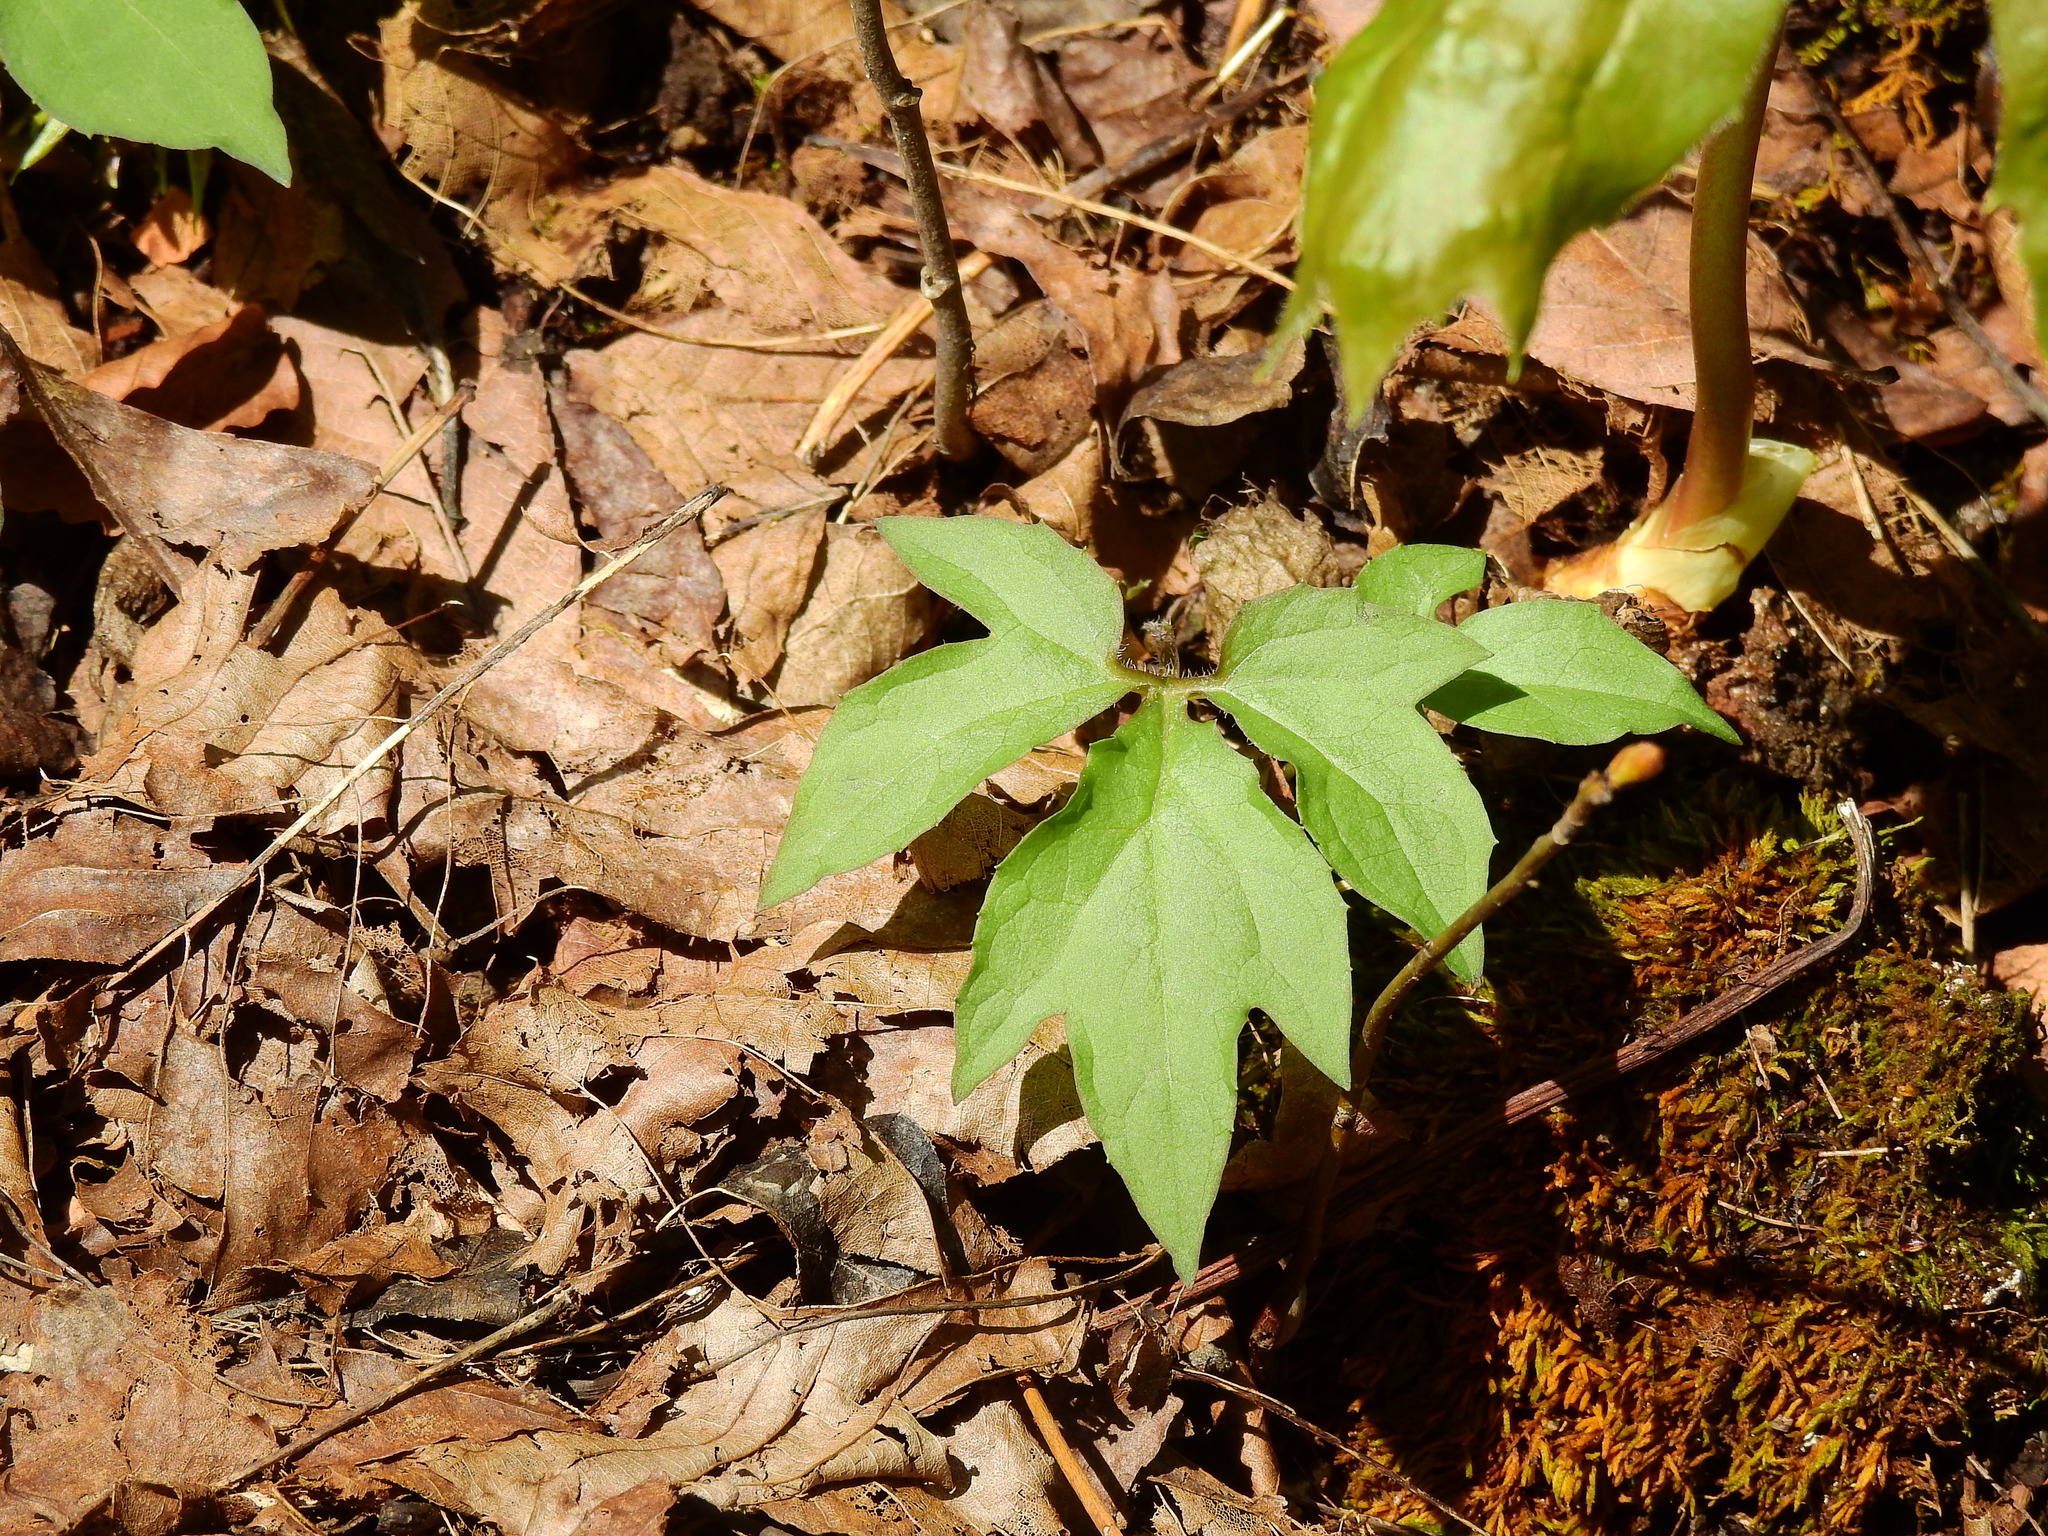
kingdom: Plantae
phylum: Tracheophyta
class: Magnoliopsida
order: Asterales
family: Asteraceae
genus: Nabalus
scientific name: Nabalus
